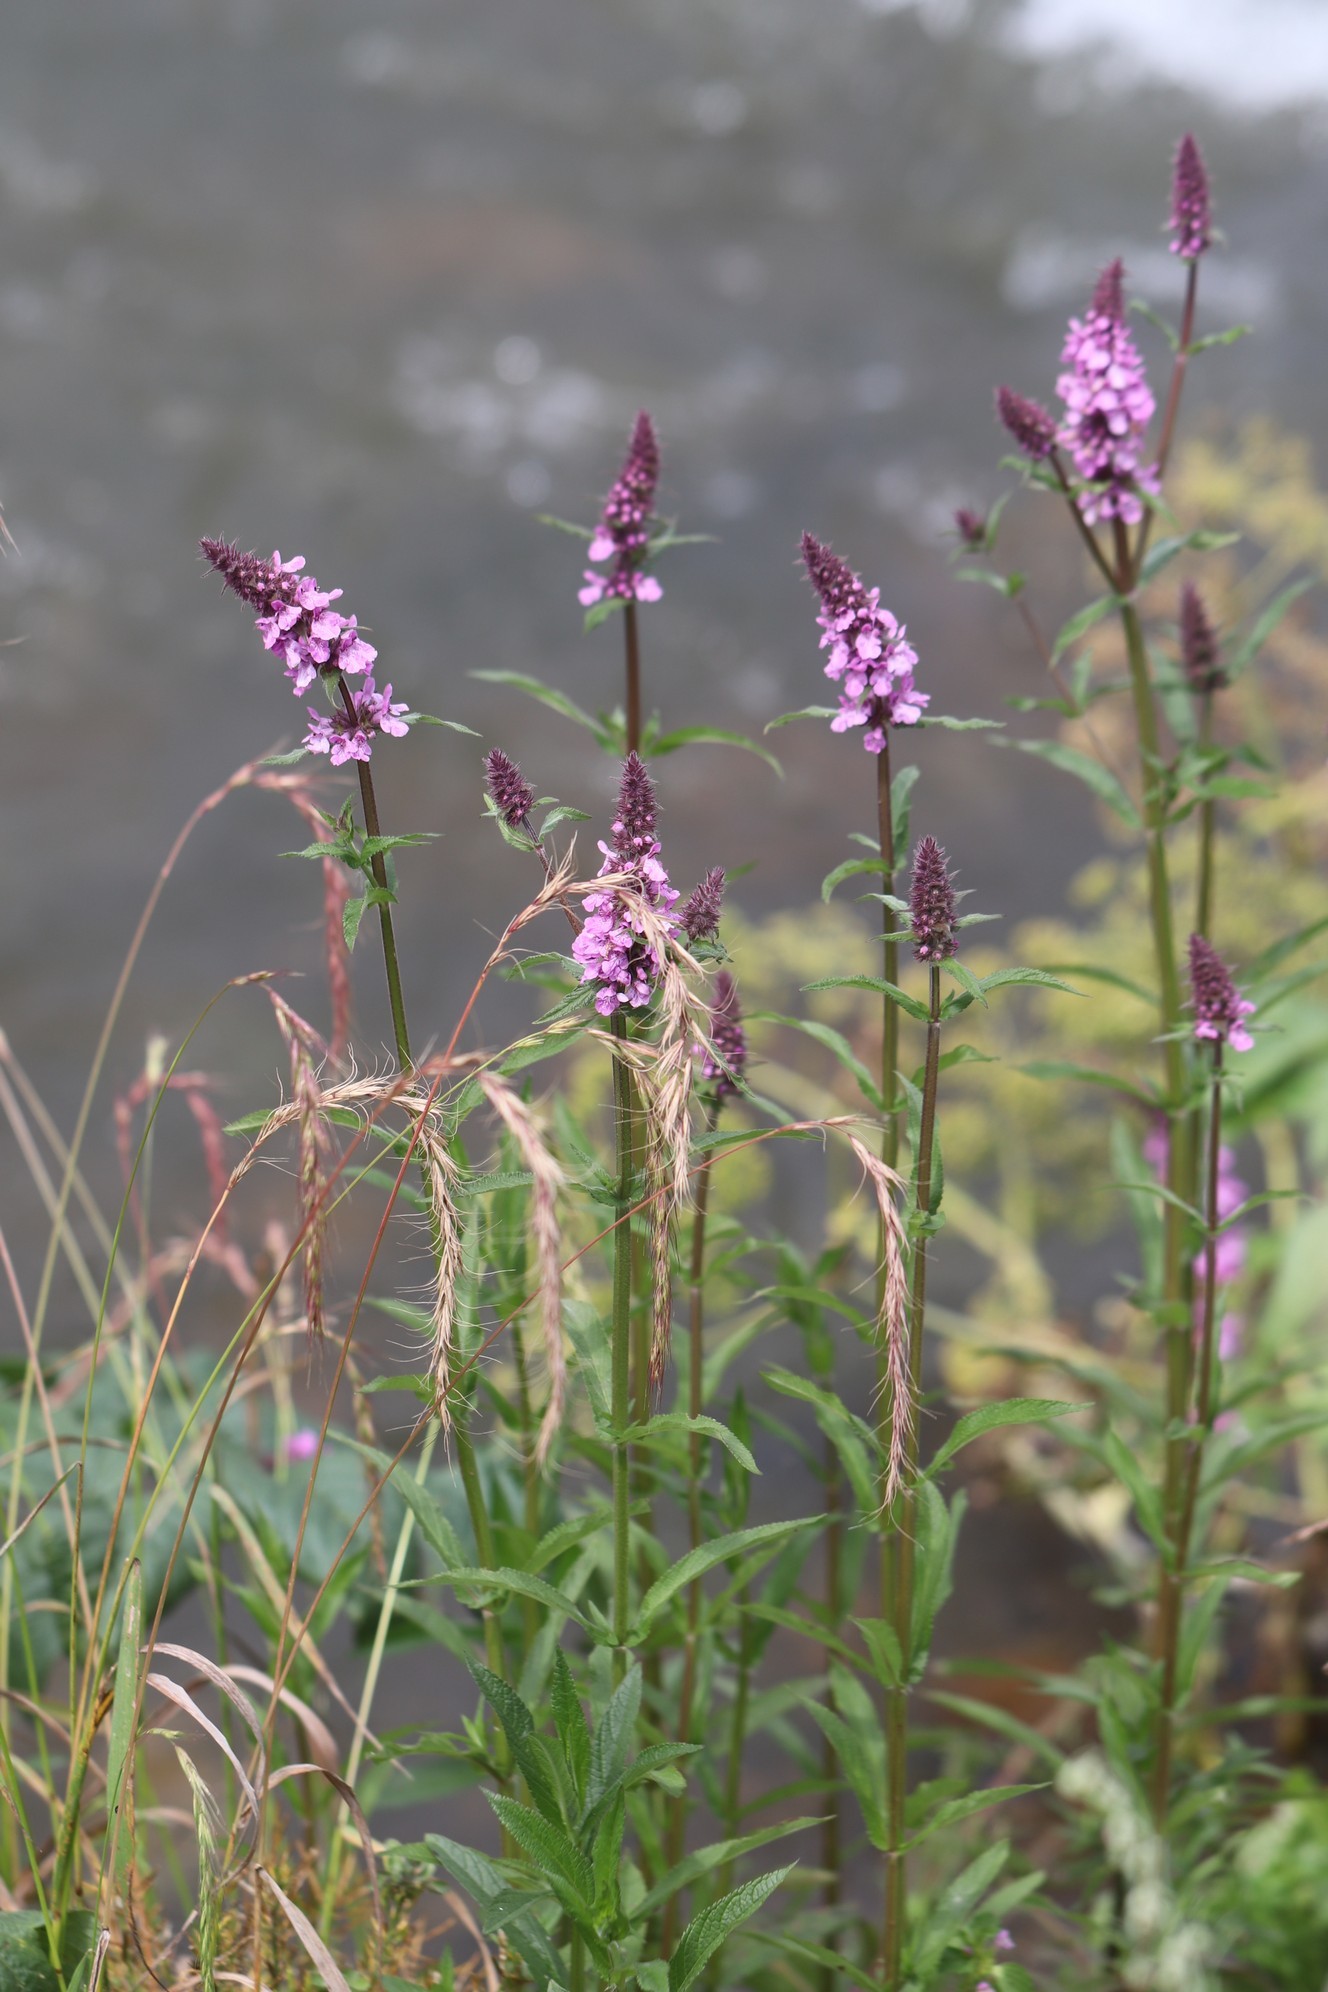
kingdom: Plantae
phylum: Tracheophyta
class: Magnoliopsida
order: Lamiales
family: Lamiaceae
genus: Stachys
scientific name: Stachys palustris
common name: Marsh woundwort
